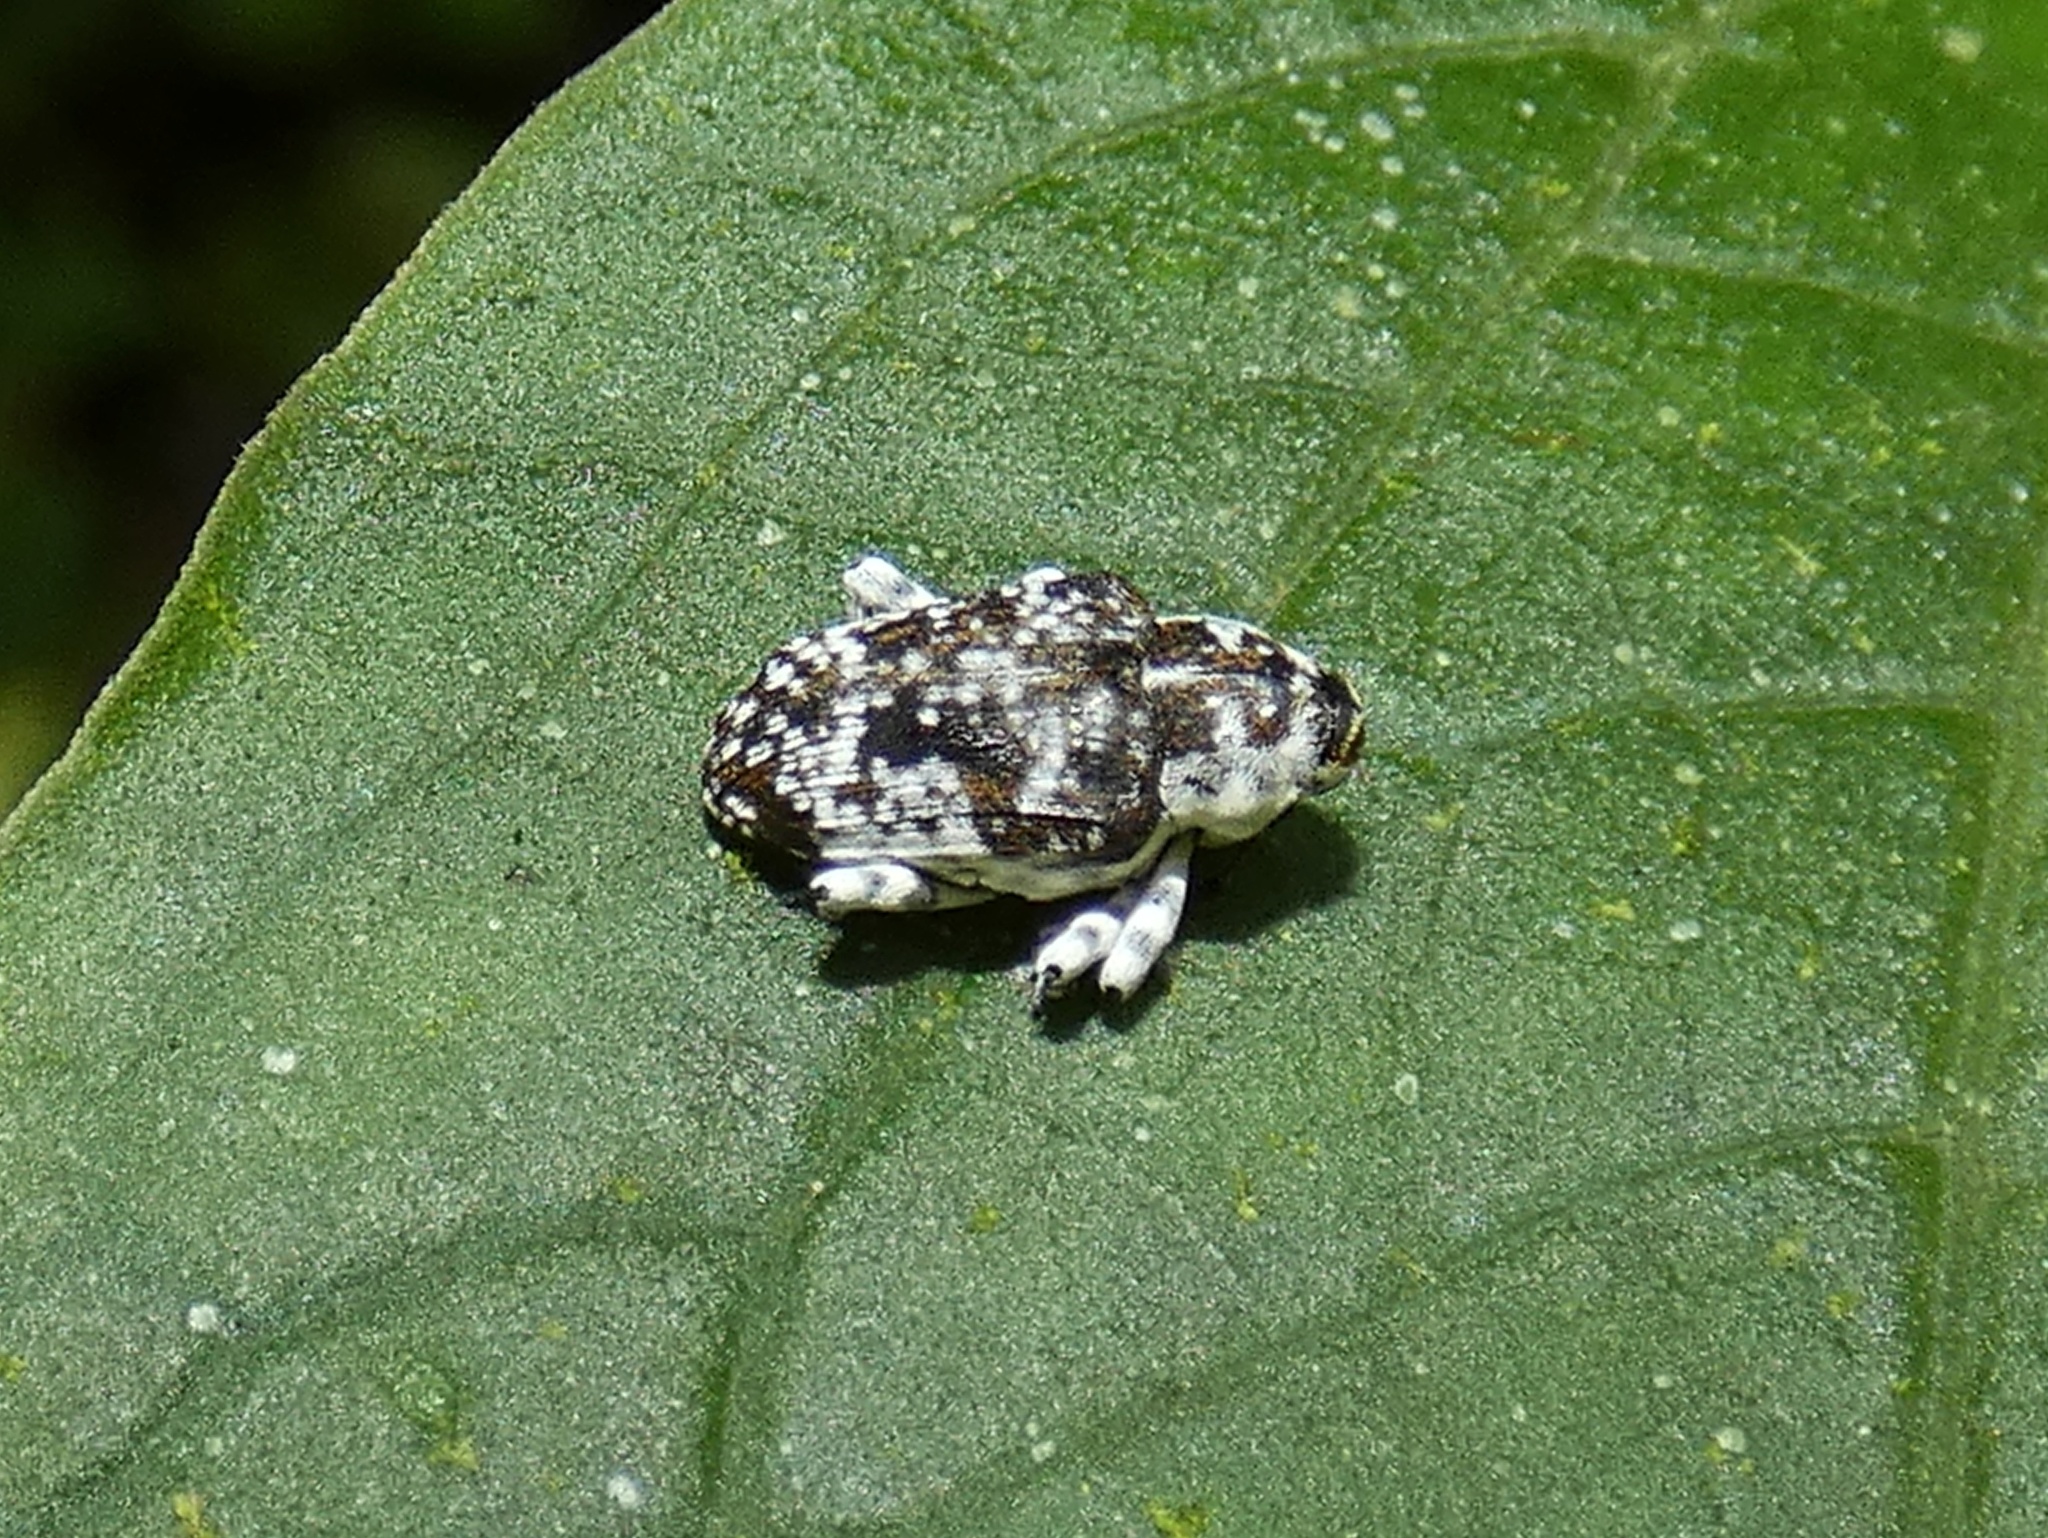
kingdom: Animalia
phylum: Arthropoda
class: Insecta
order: Coleoptera
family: Curculionidae
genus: Peridinetus
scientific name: Peridinetus irroratus
